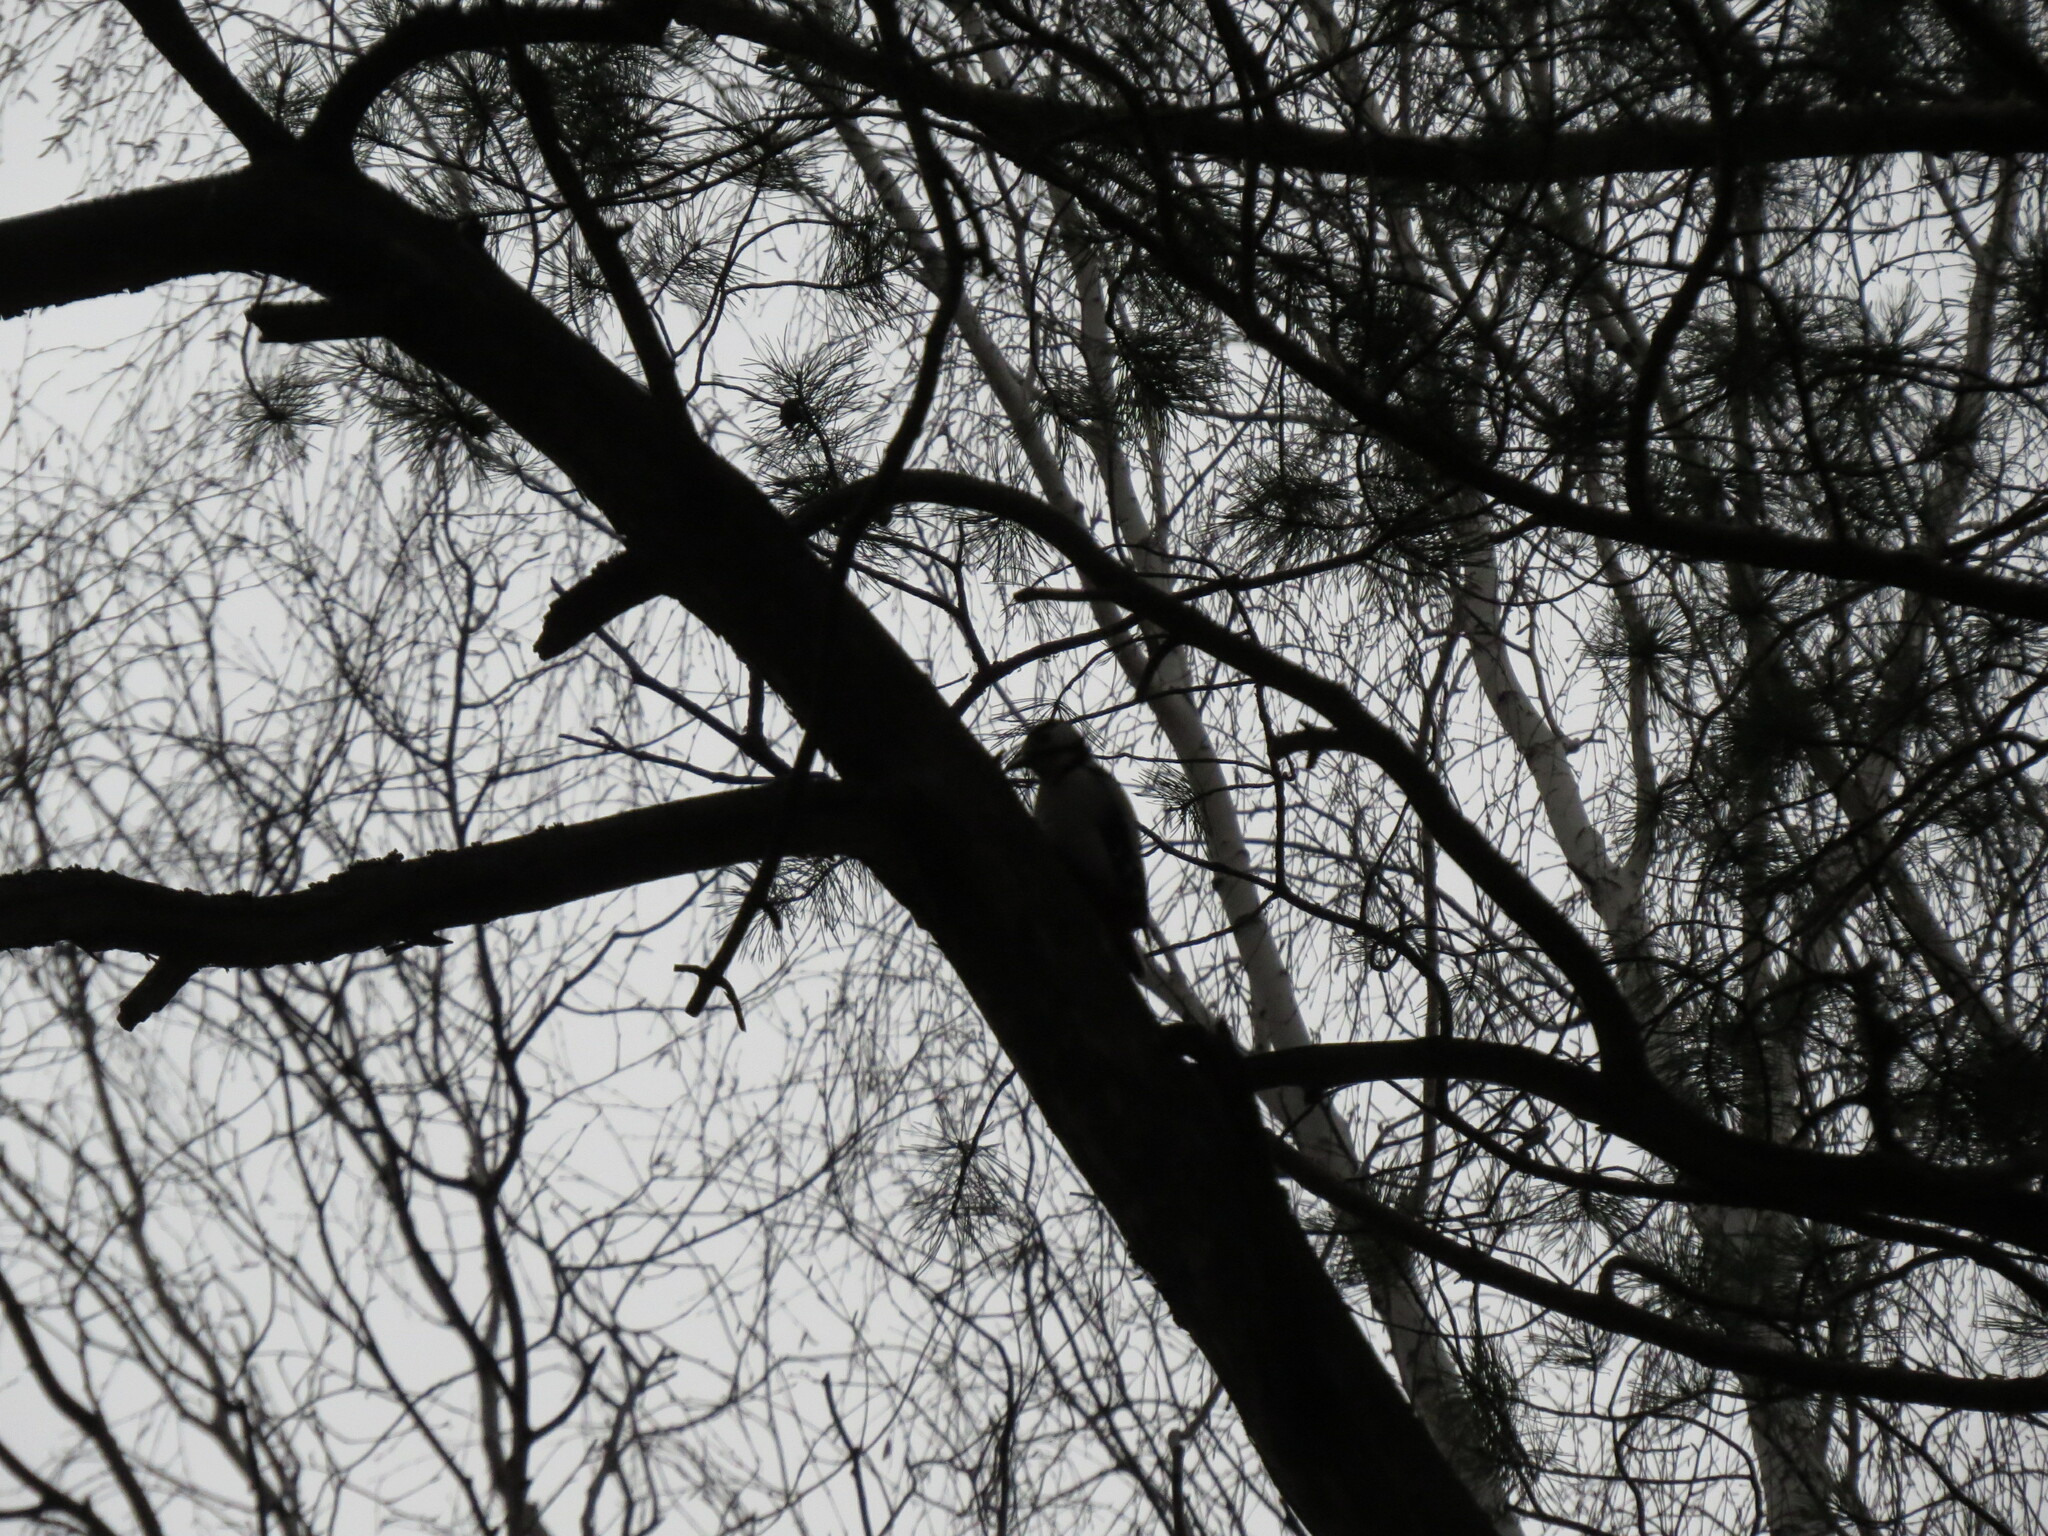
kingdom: Animalia
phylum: Chordata
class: Aves
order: Piciformes
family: Picidae
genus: Dendrocopos
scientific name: Dendrocopos major
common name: Great spotted woodpecker
